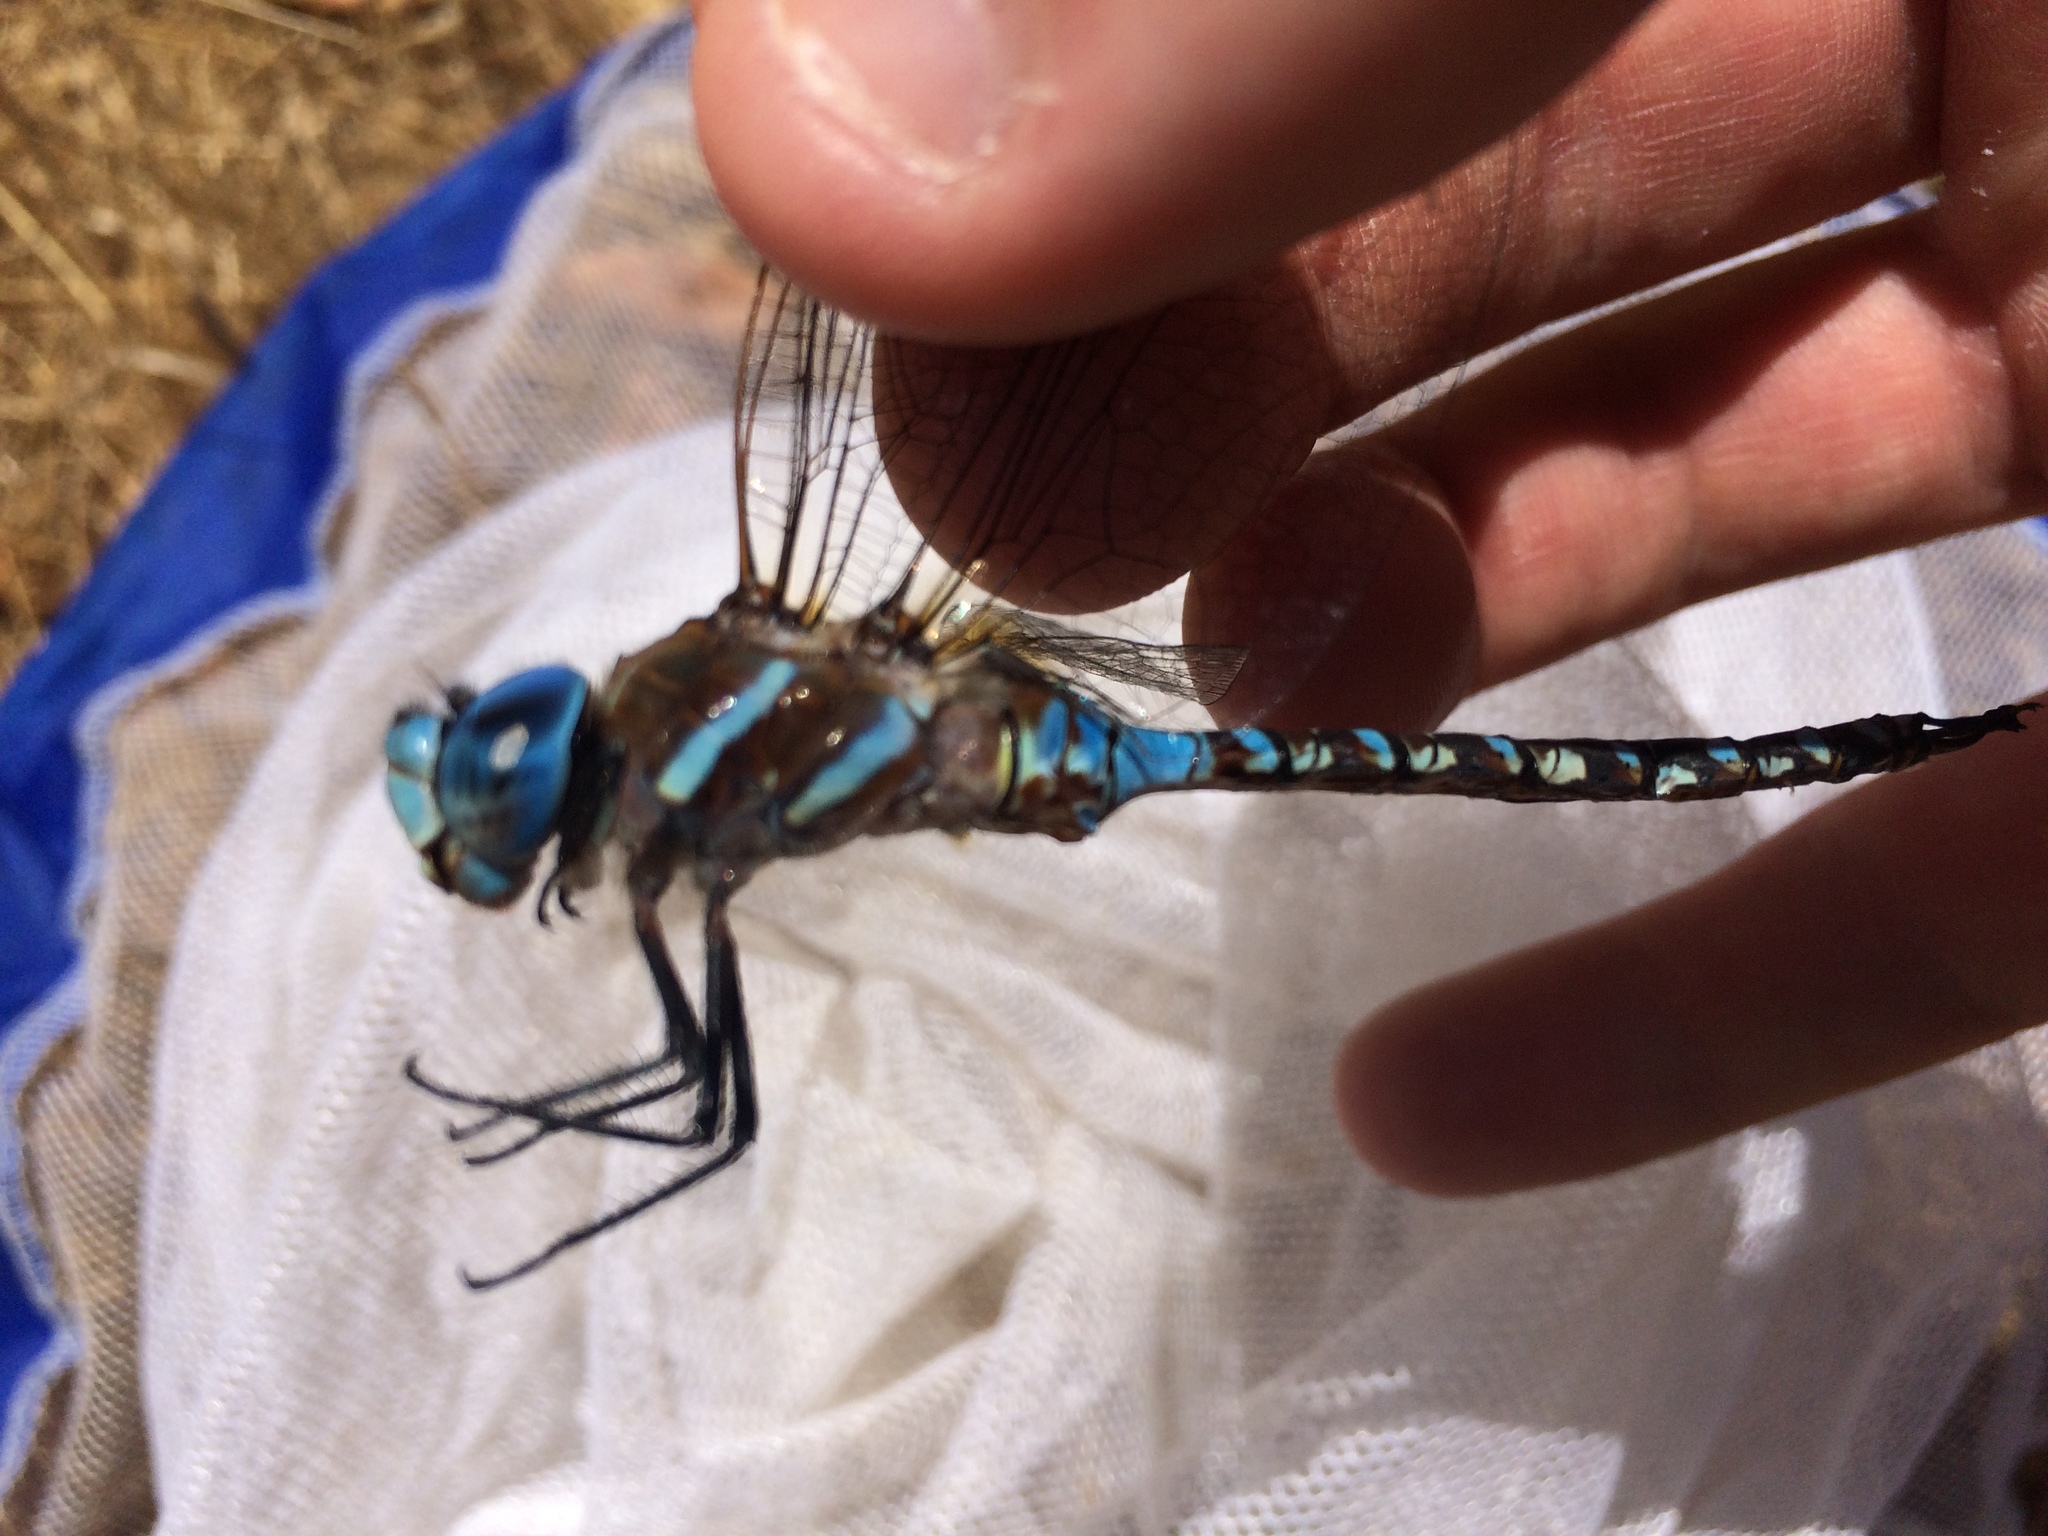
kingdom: Animalia
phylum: Arthropoda
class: Insecta
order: Odonata
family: Aeshnidae
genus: Rhionaeschna
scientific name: Rhionaeschna multicolor
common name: Blue-eyed darner
